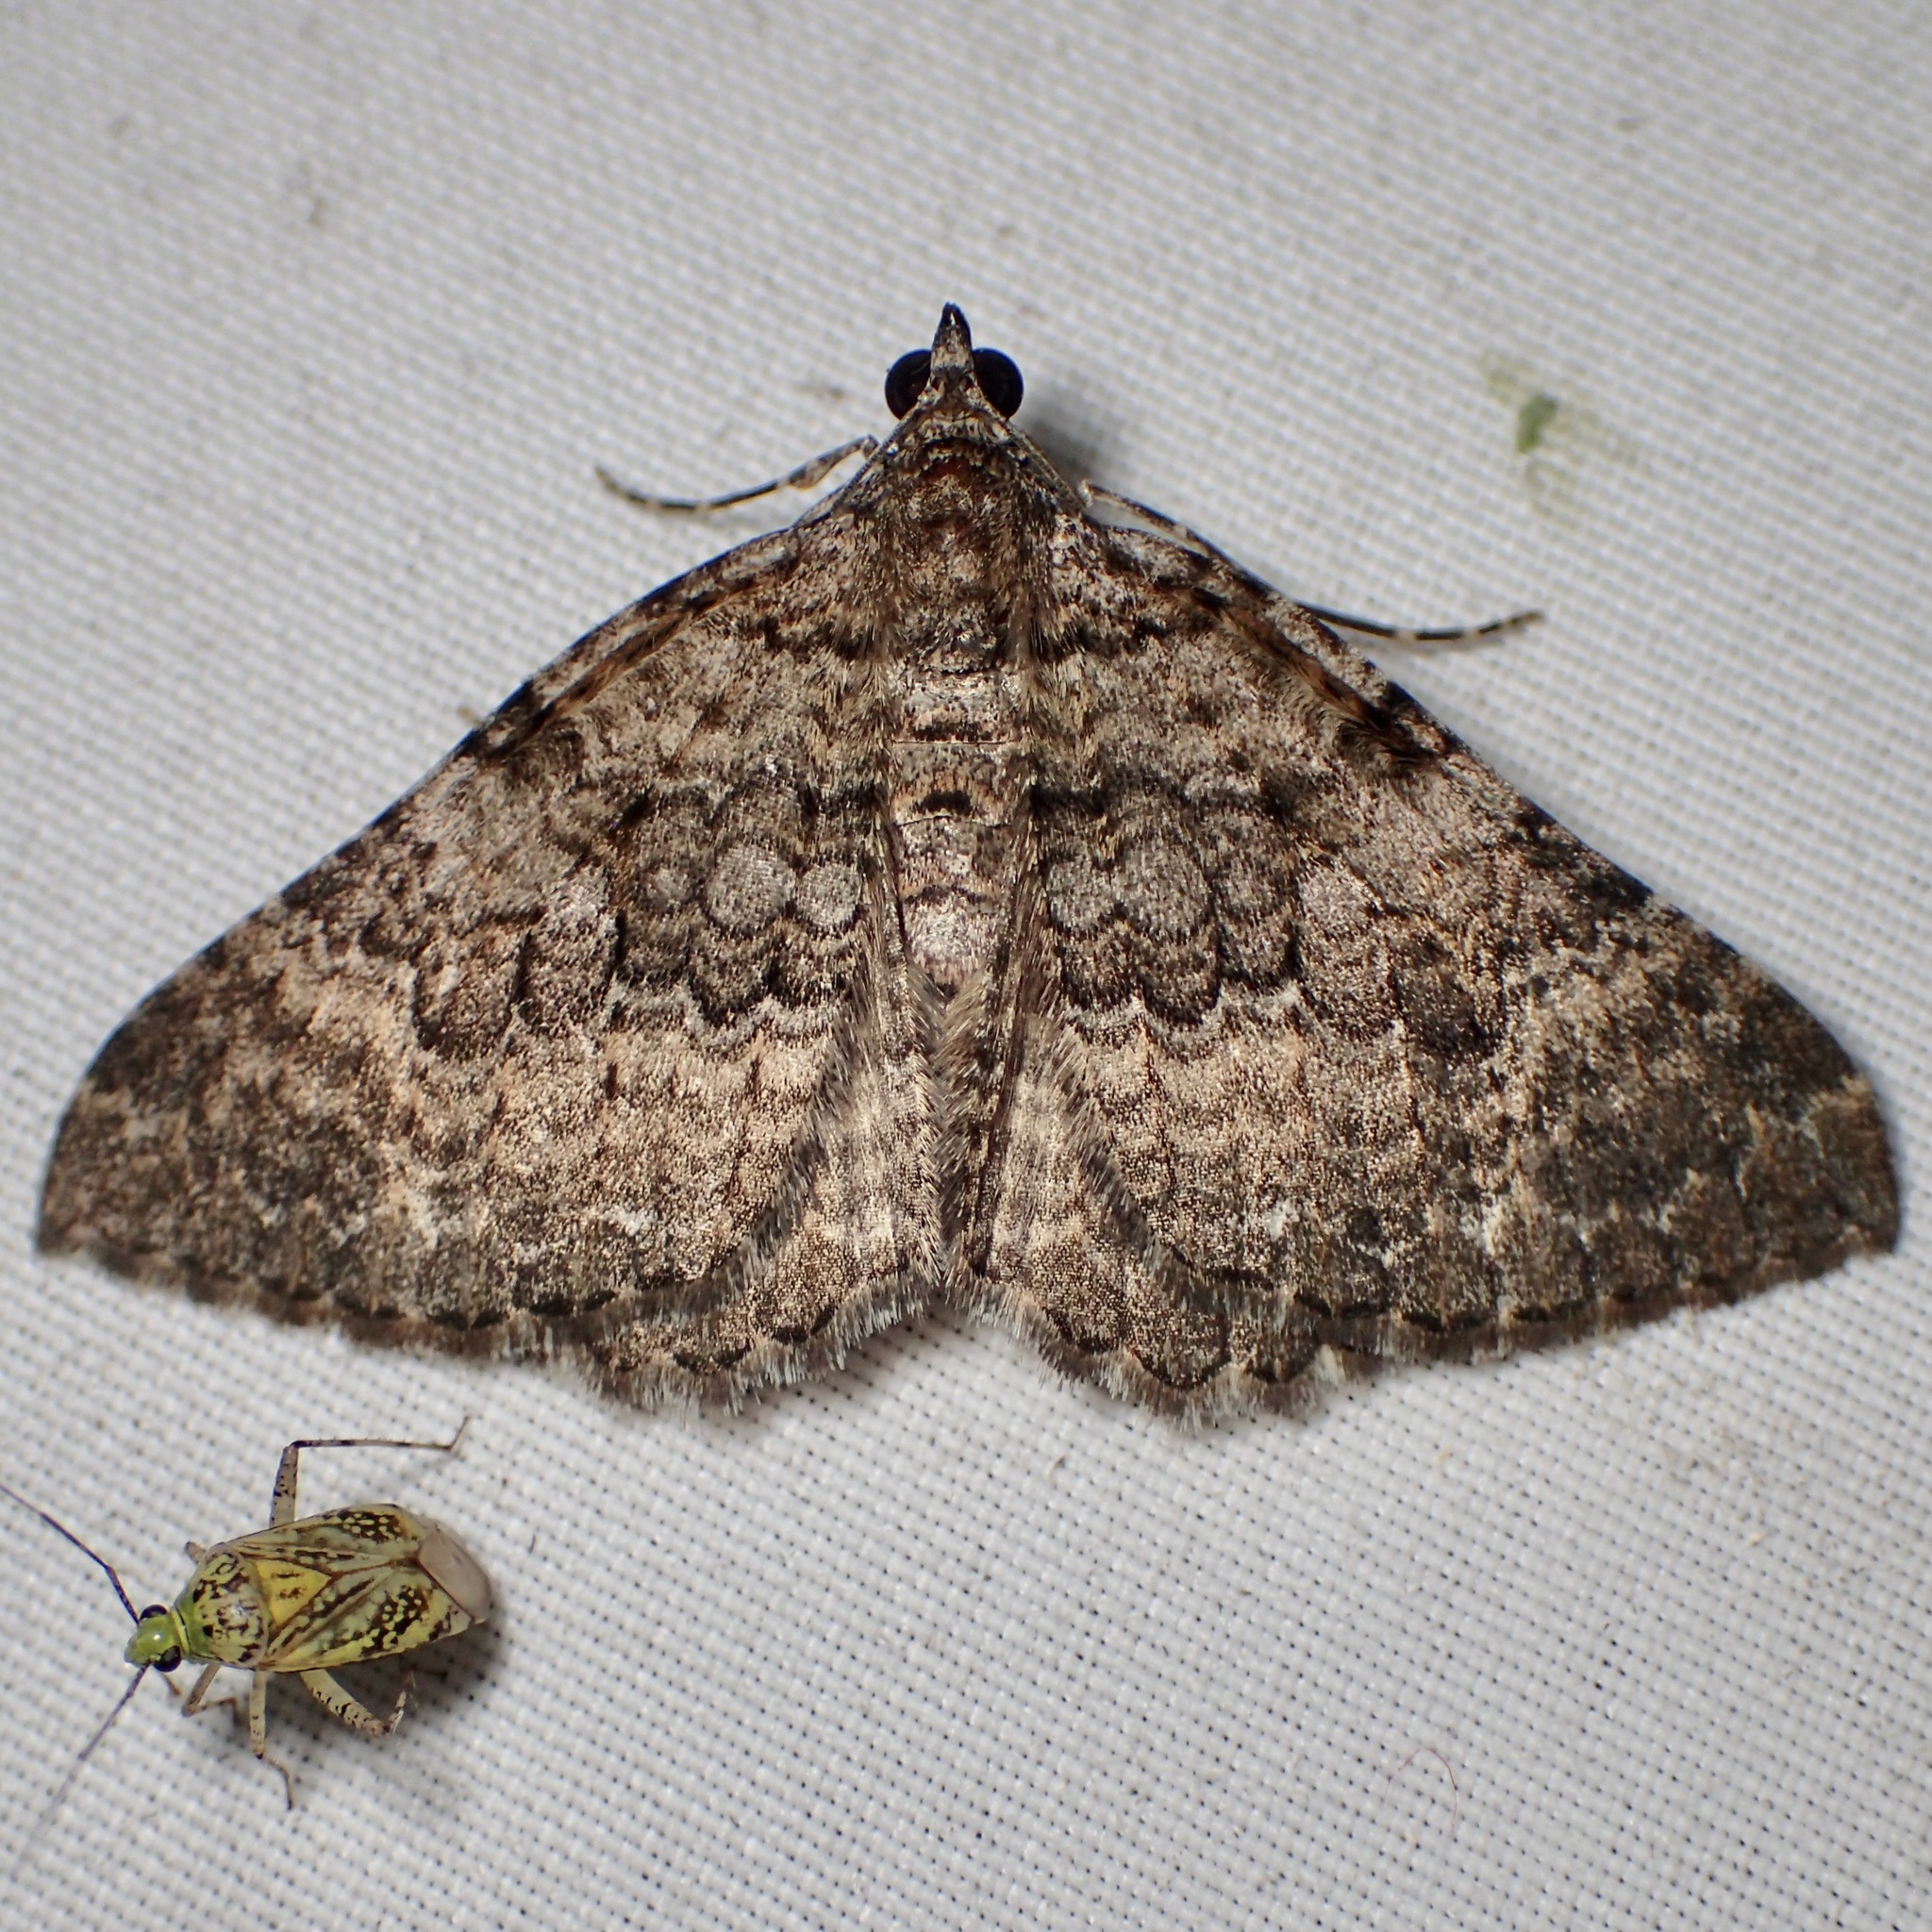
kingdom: Animalia
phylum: Arthropoda
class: Insecta
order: Lepidoptera
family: Geometridae
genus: Archirhoe
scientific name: Archirhoe neomexicana
